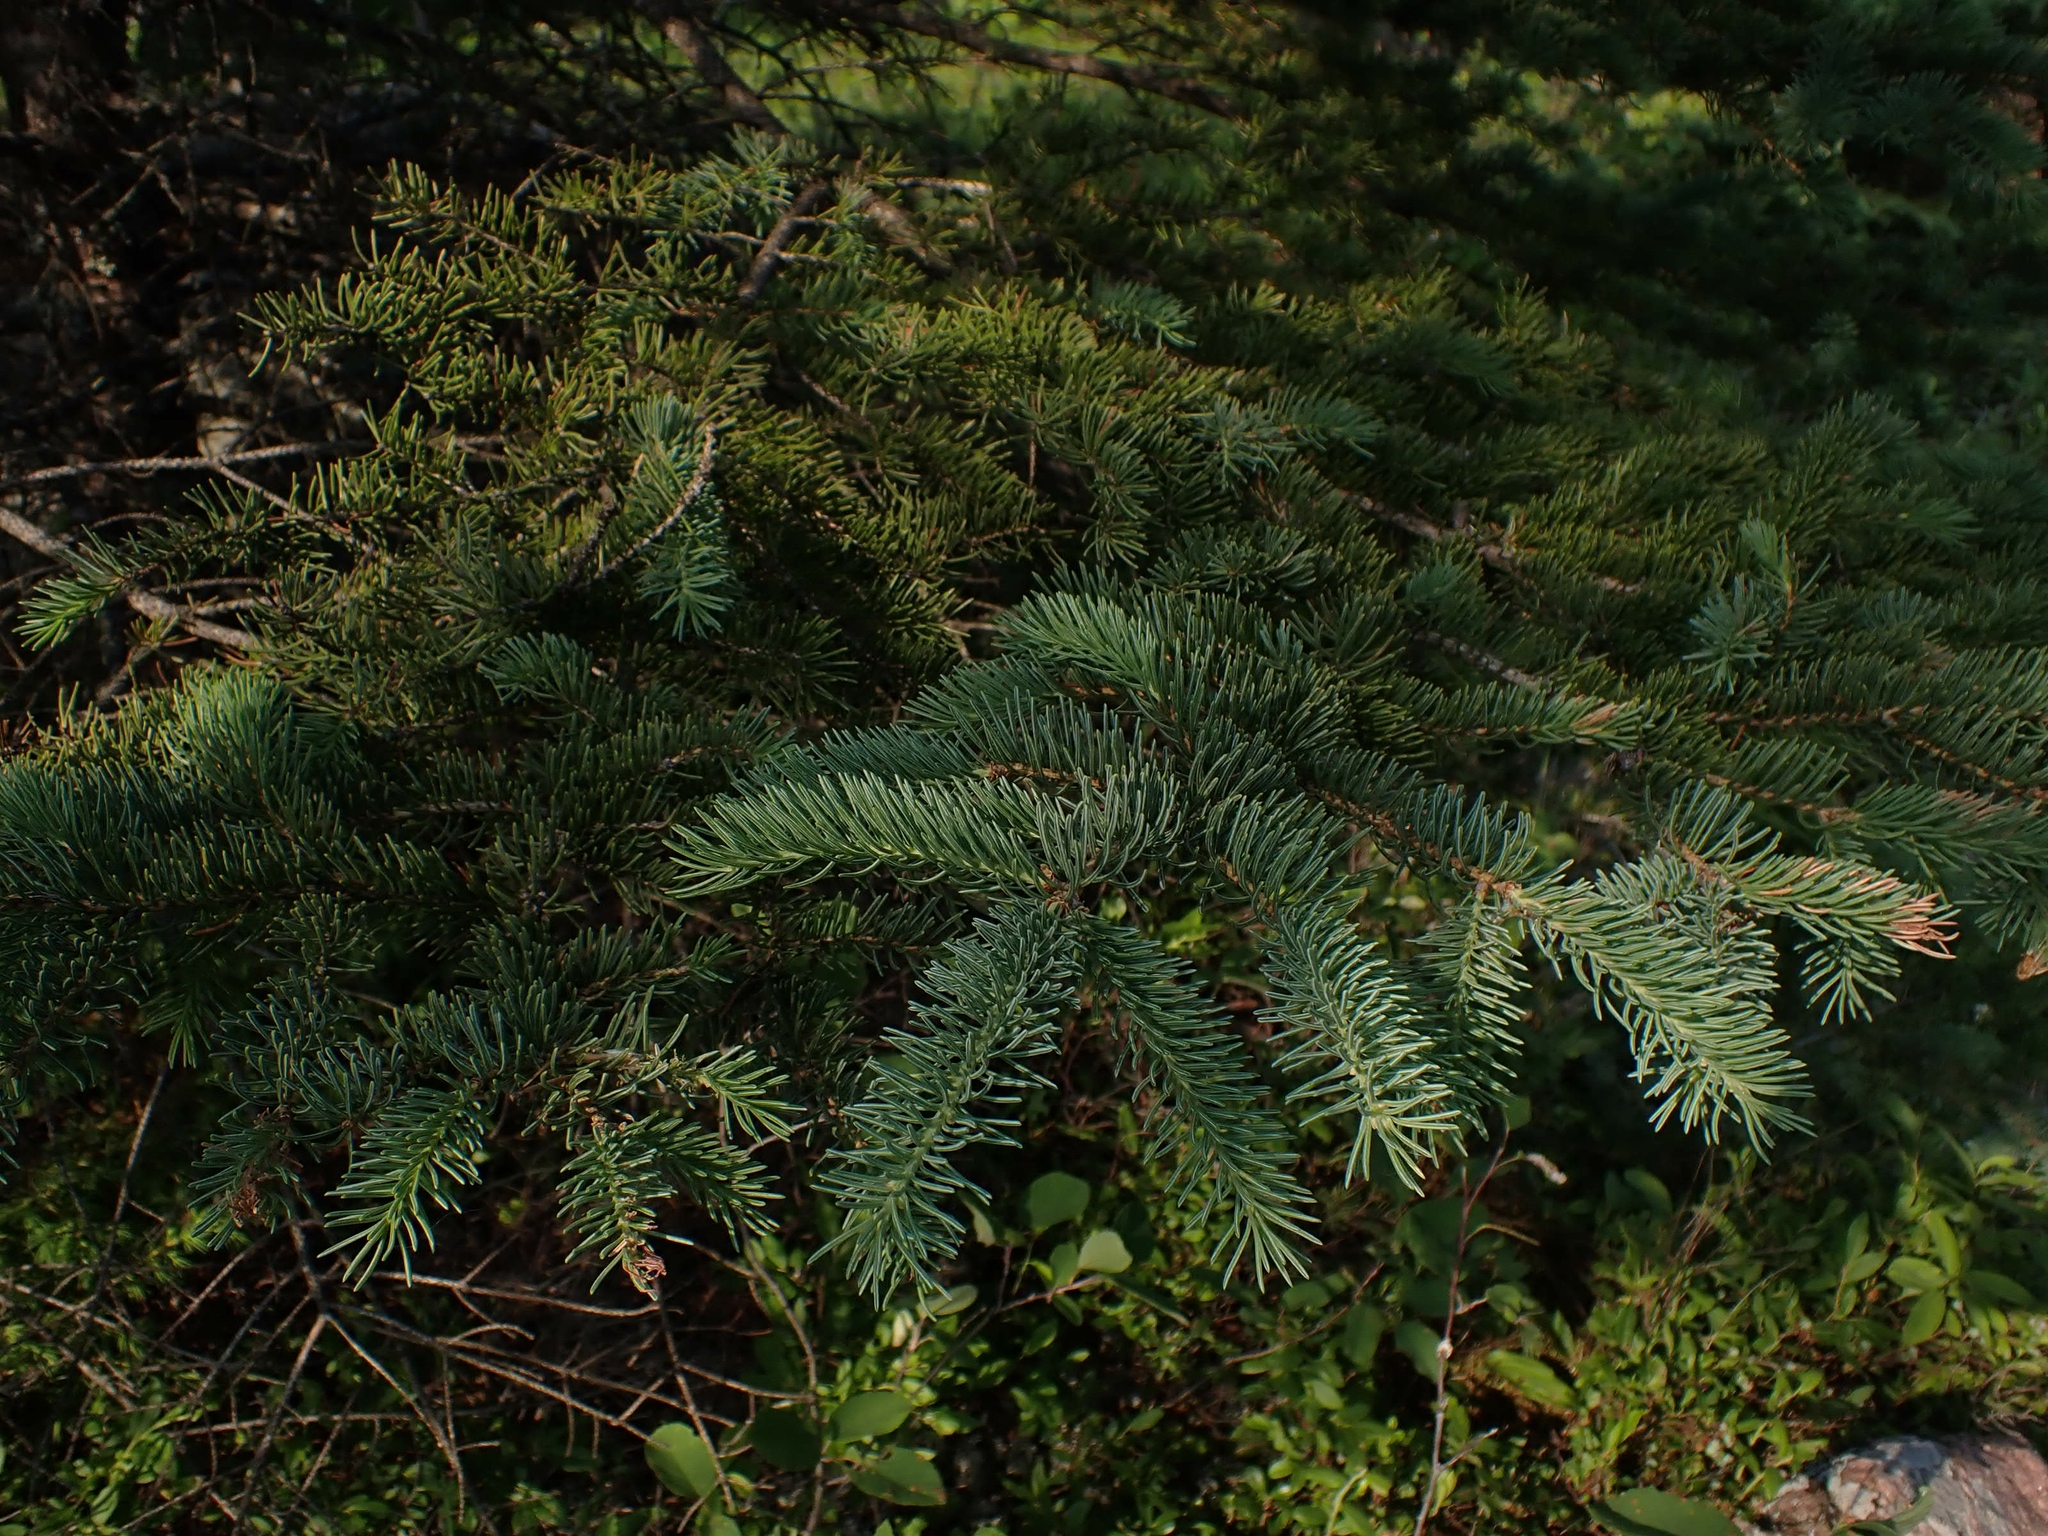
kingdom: Plantae
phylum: Tracheophyta
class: Pinopsida
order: Pinales
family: Pinaceae
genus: Picea
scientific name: Picea glauca
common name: White spruce
